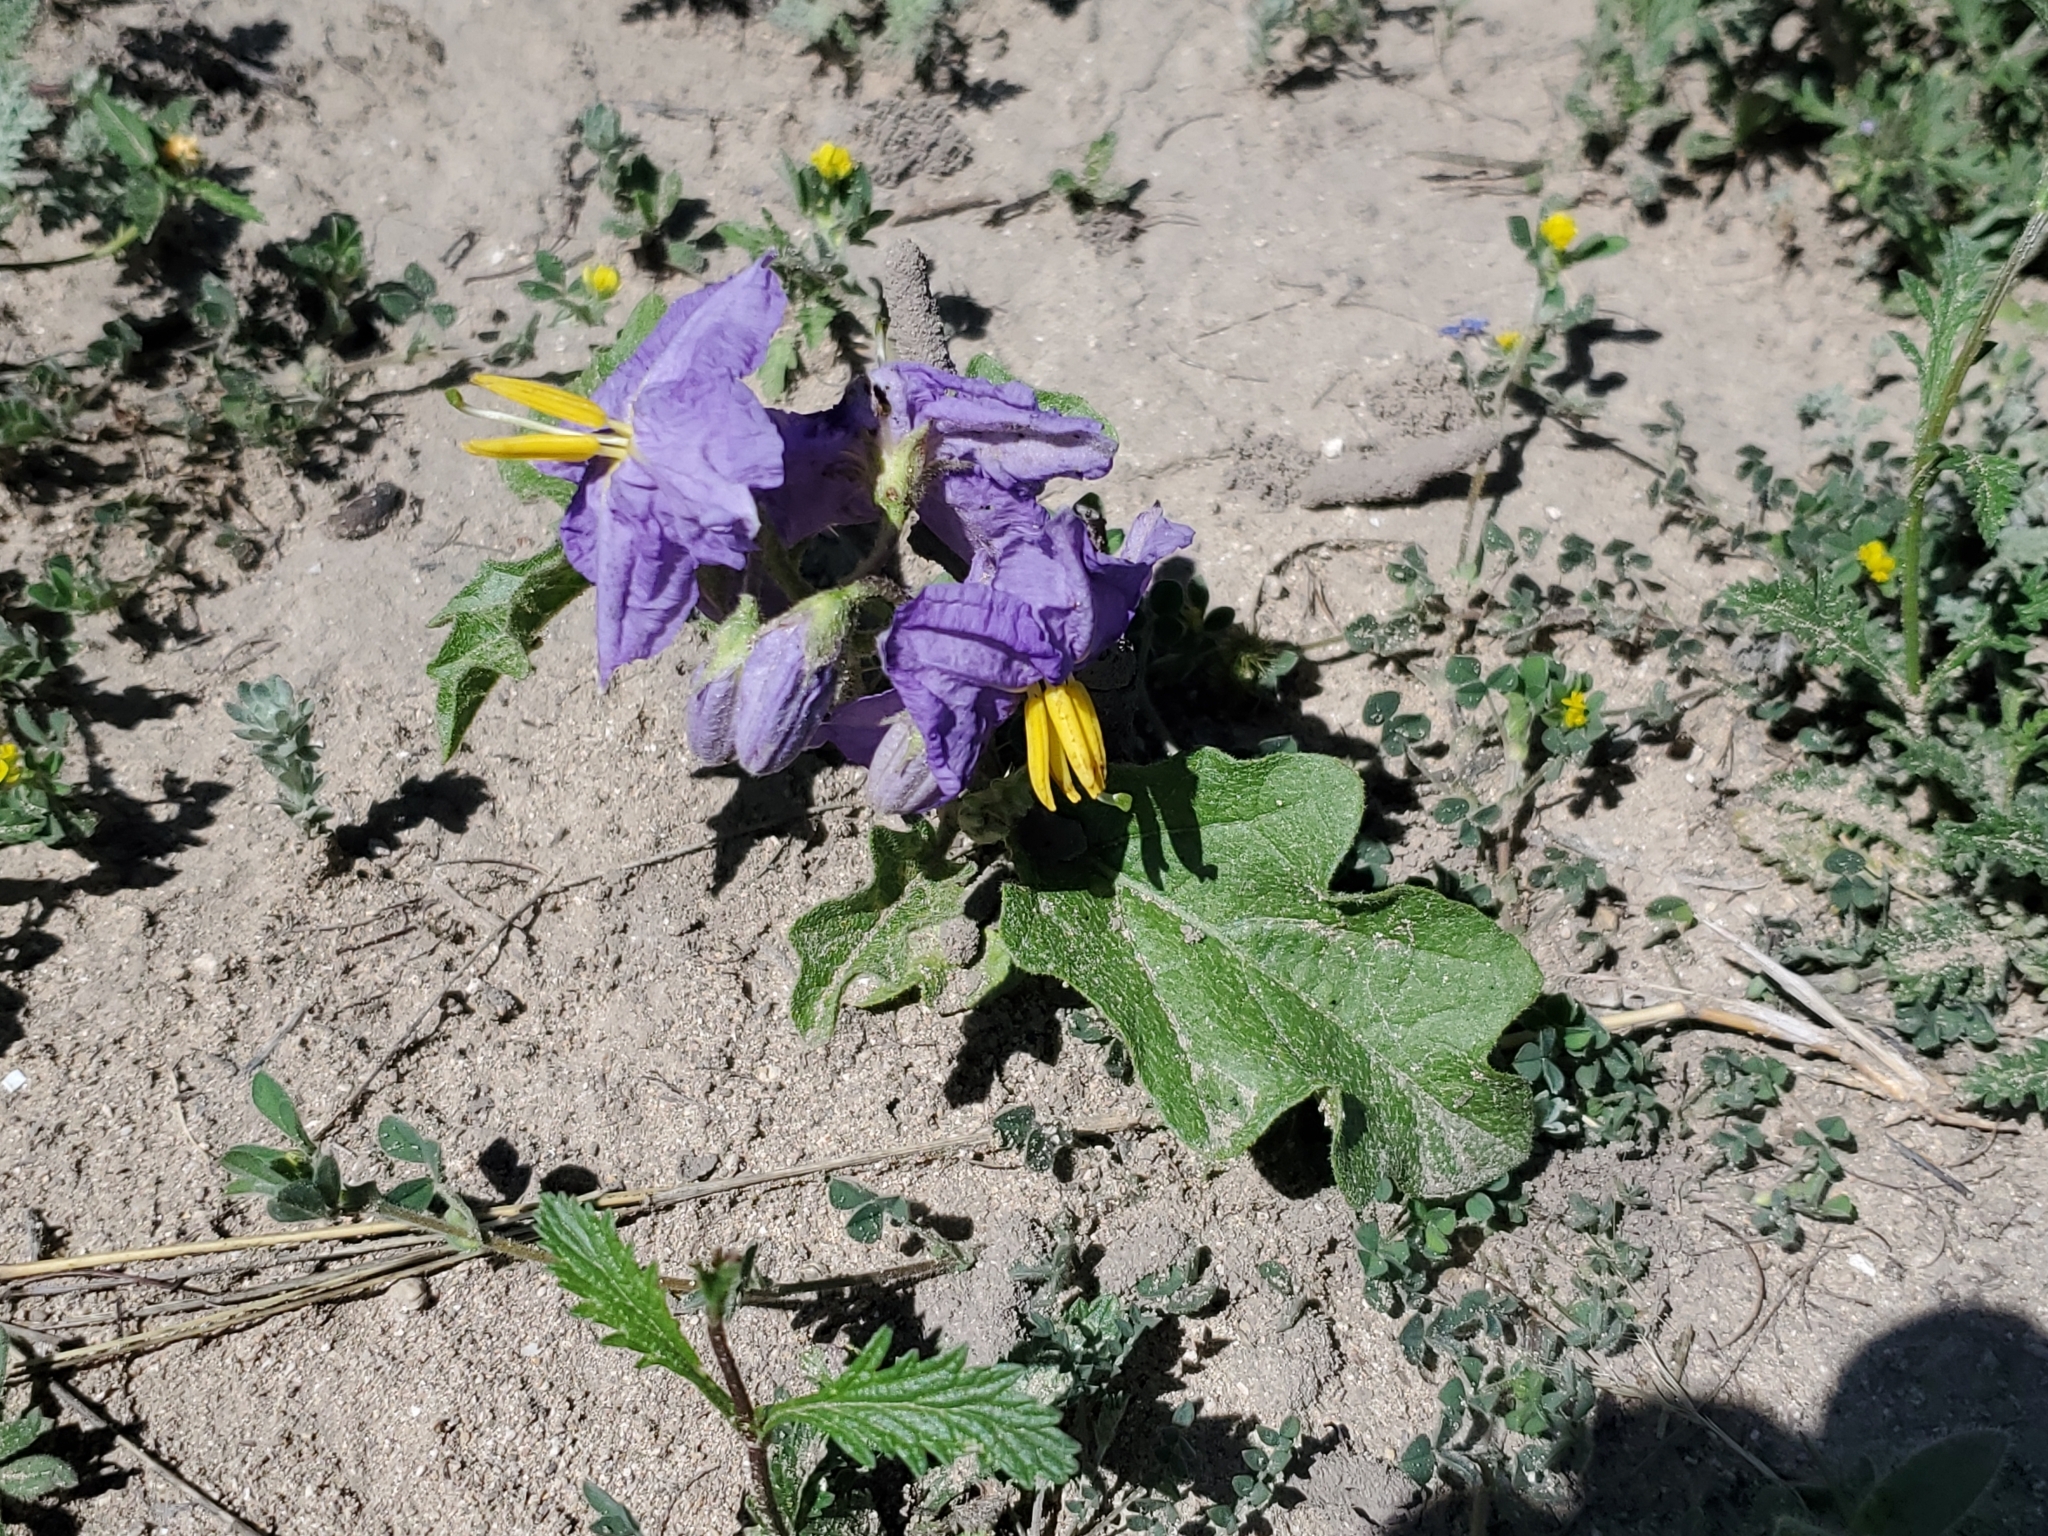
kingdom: Plantae
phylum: Tracheophyta
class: Magnoliopsida
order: Solanales
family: Solanaceae
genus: Solanum
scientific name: Solanum dimidiatum
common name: Carolina horse-nettle
